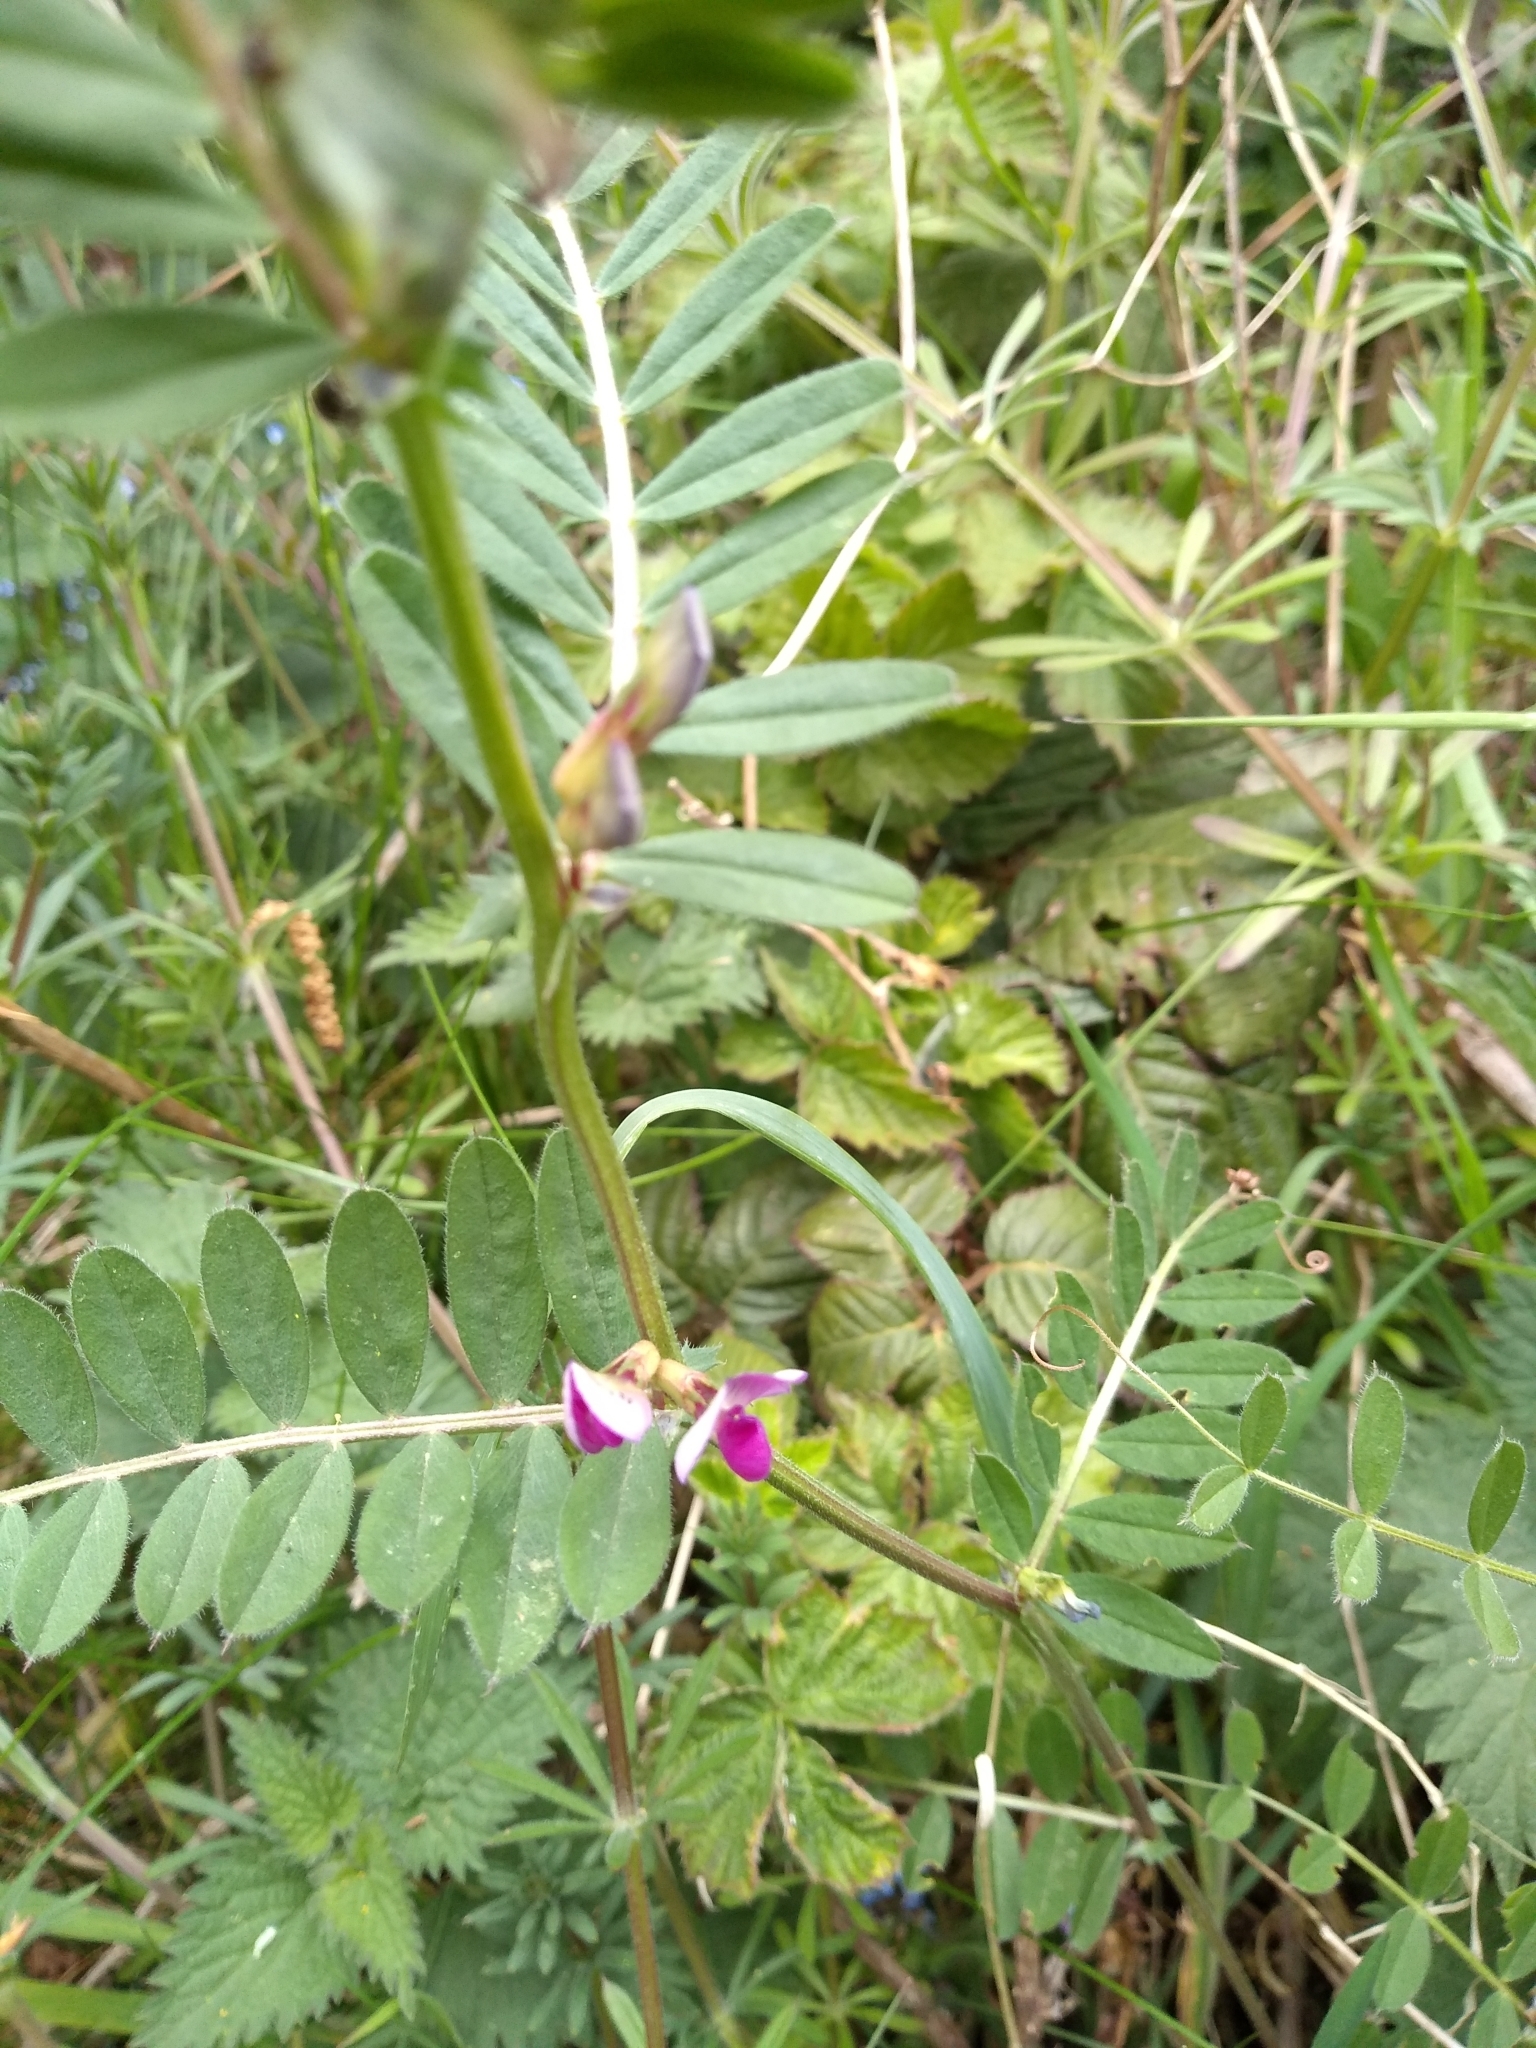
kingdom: Plantae
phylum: Tracheophyta
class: Magnoliopsida
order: Fabales
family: Fabaceae
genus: Vicia
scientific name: Vicia sativa
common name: Garden vetch
